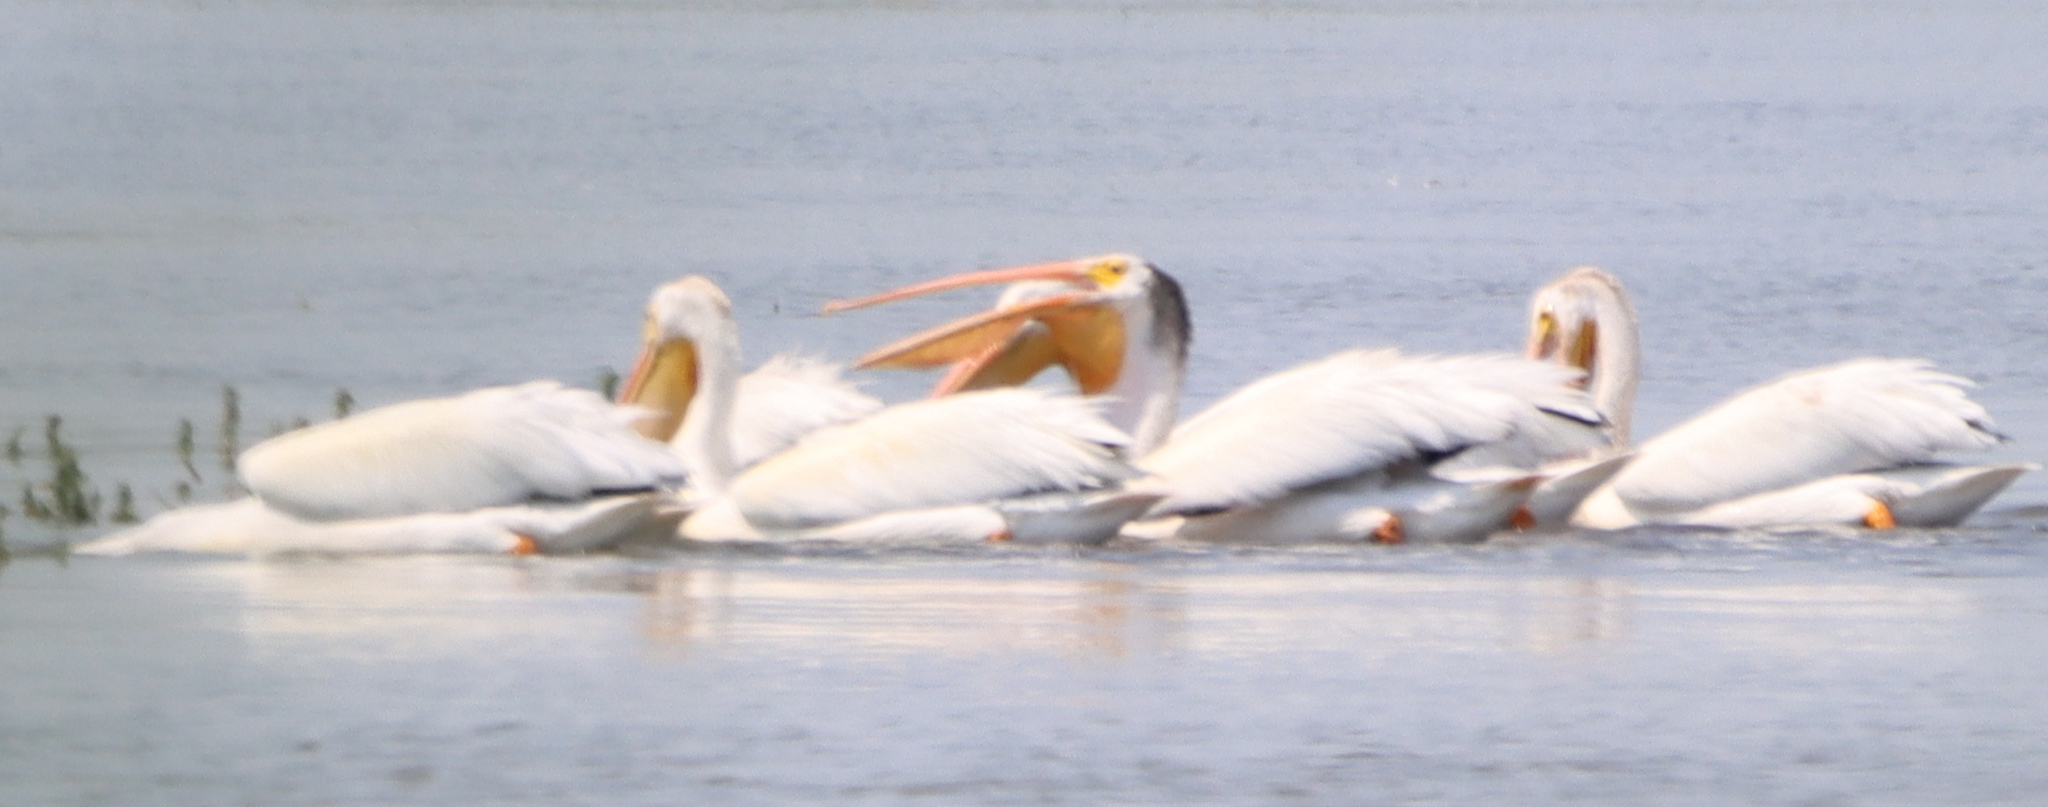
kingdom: Animalia
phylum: Chordata
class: Aves
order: Pelecaniformes
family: Pelecanidae
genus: Pelecanus
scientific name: Pelecanus erythrorhynchos
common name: American white pelican
